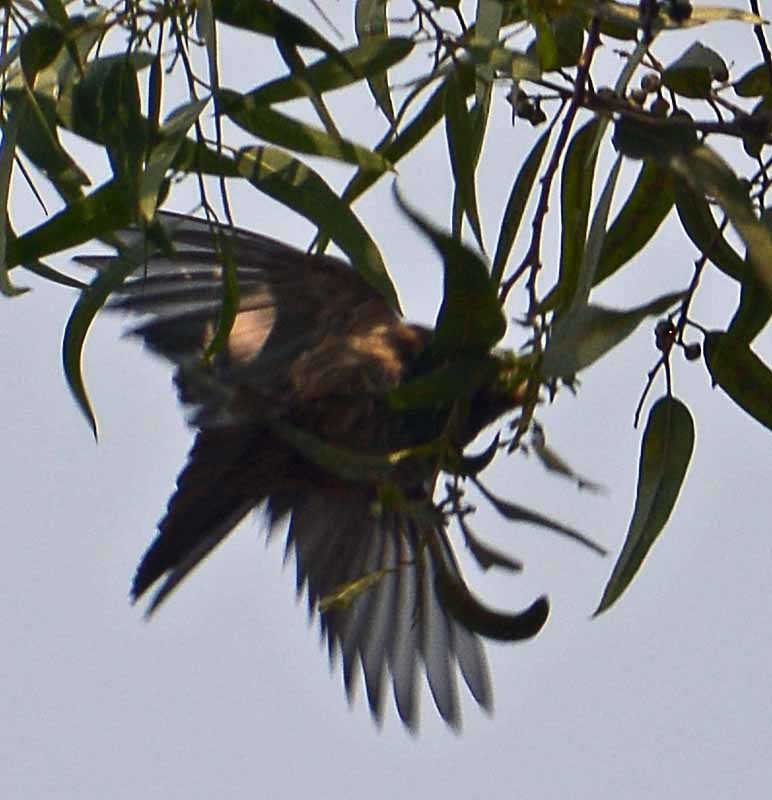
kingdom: Animalia
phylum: Chordata
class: Aves
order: Passeriformes
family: Fringillidae
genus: Haemorhous
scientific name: Haemorhous mexicanus
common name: House finch
